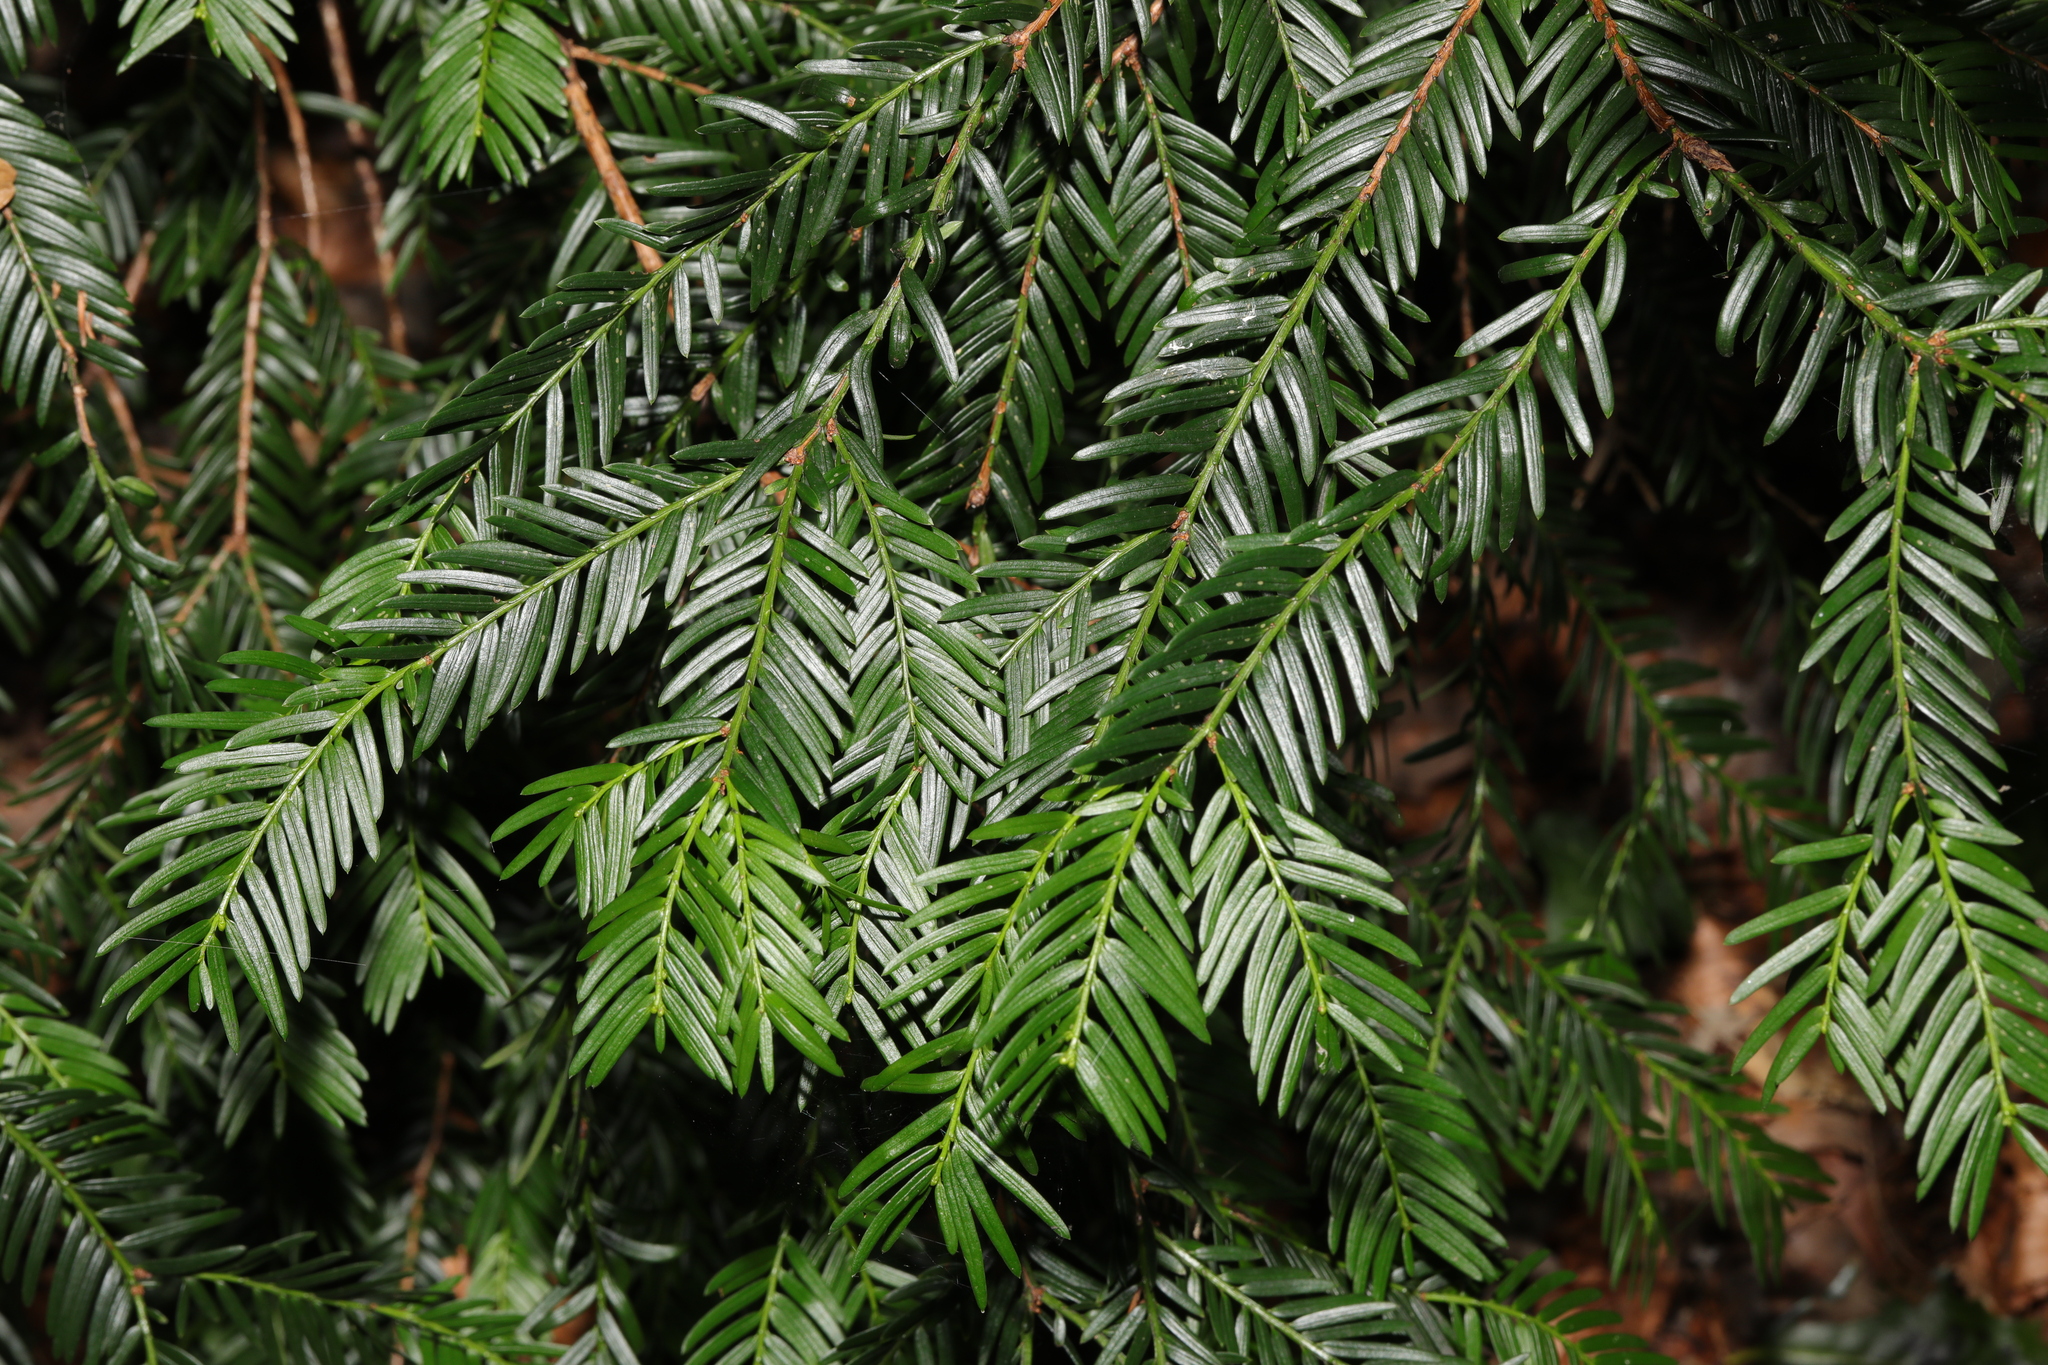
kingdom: Plantae
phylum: Tracheophyta
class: Pinopsida
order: Pinales
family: Taxaceae
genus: Taxus
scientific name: Taxus baccata
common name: Yew
